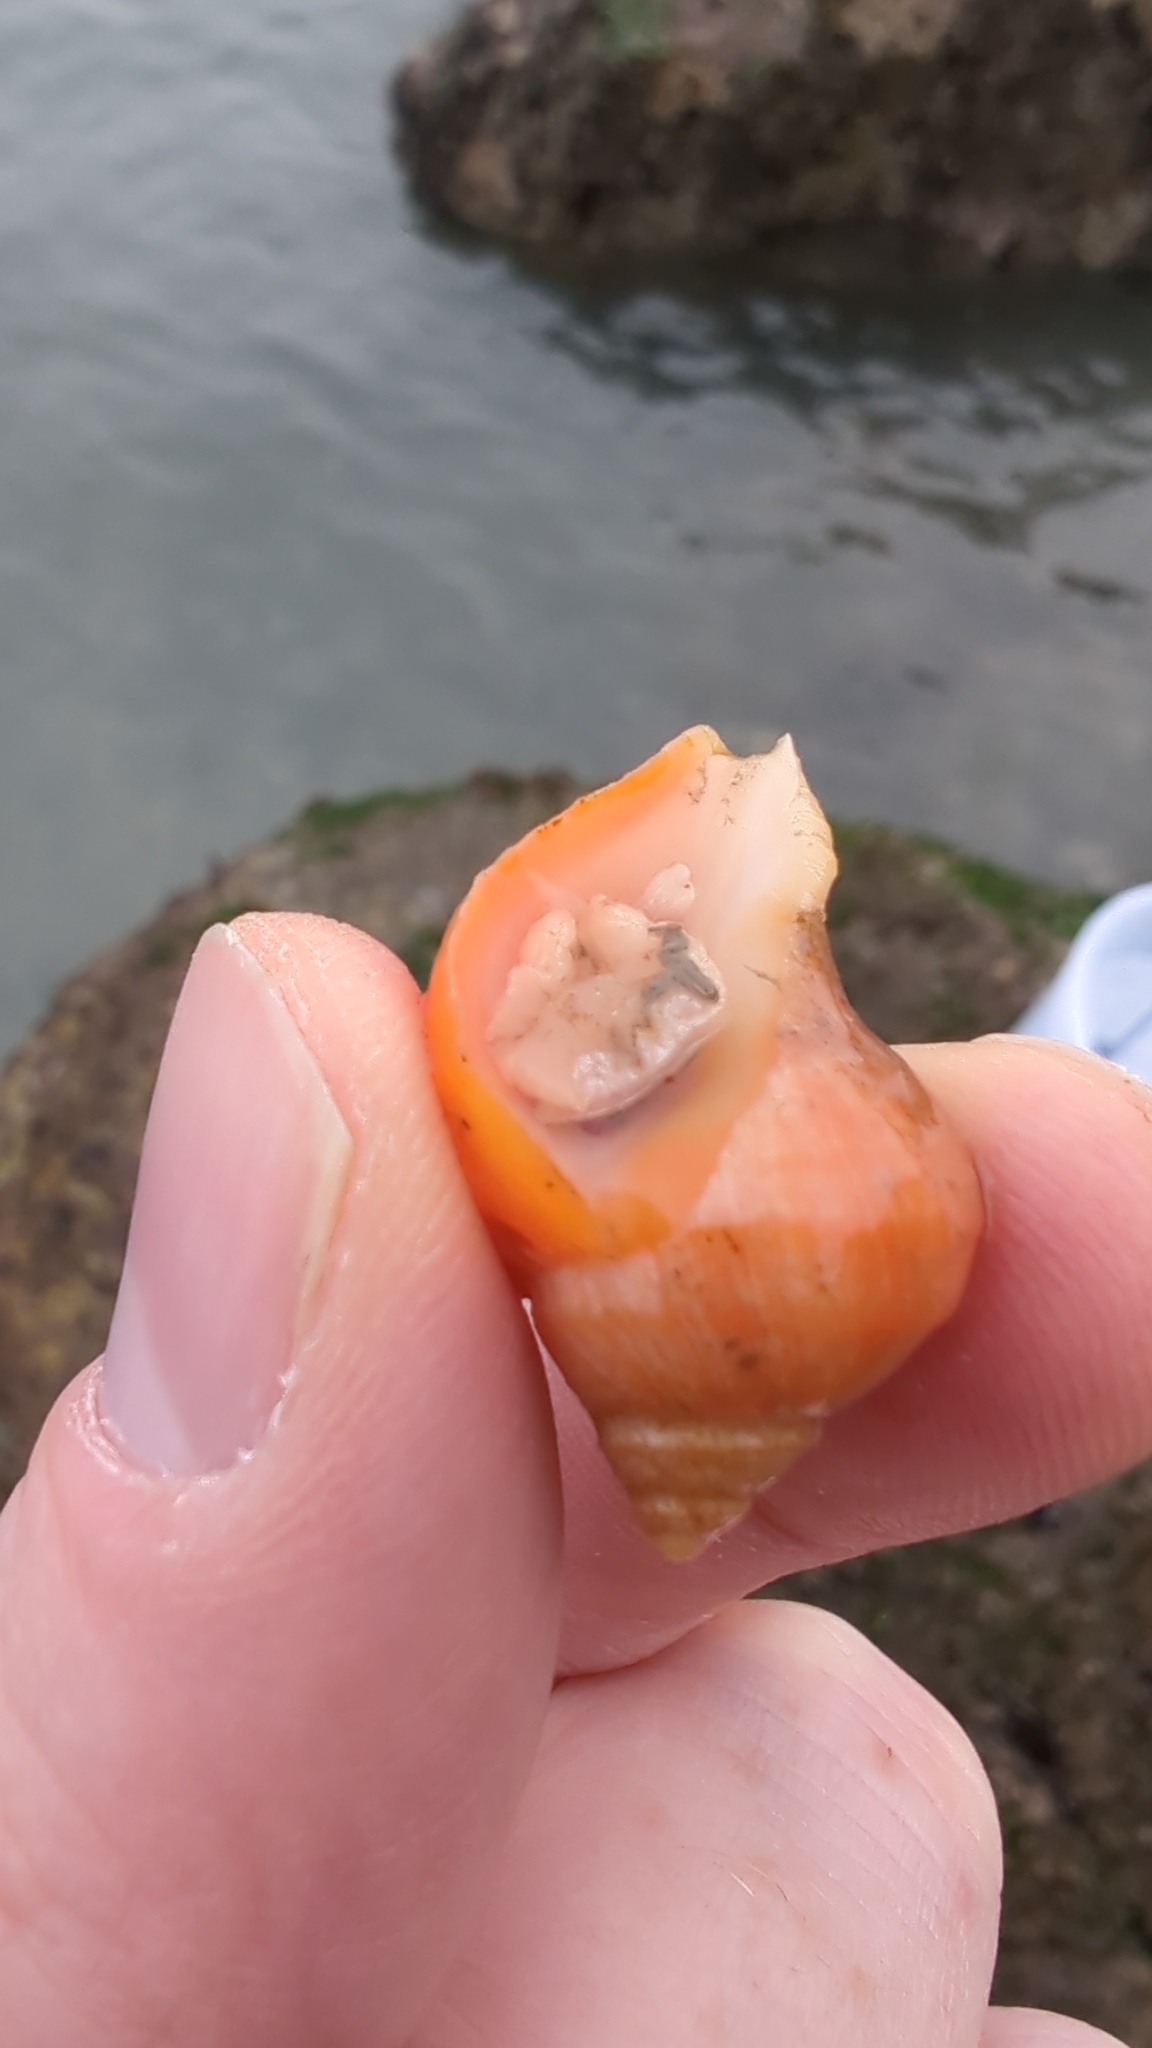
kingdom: Animalia
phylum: Mollusca
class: Gastropoda
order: Neogastropoda
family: Muricidae
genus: Nucella
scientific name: Nucella lamellosa
